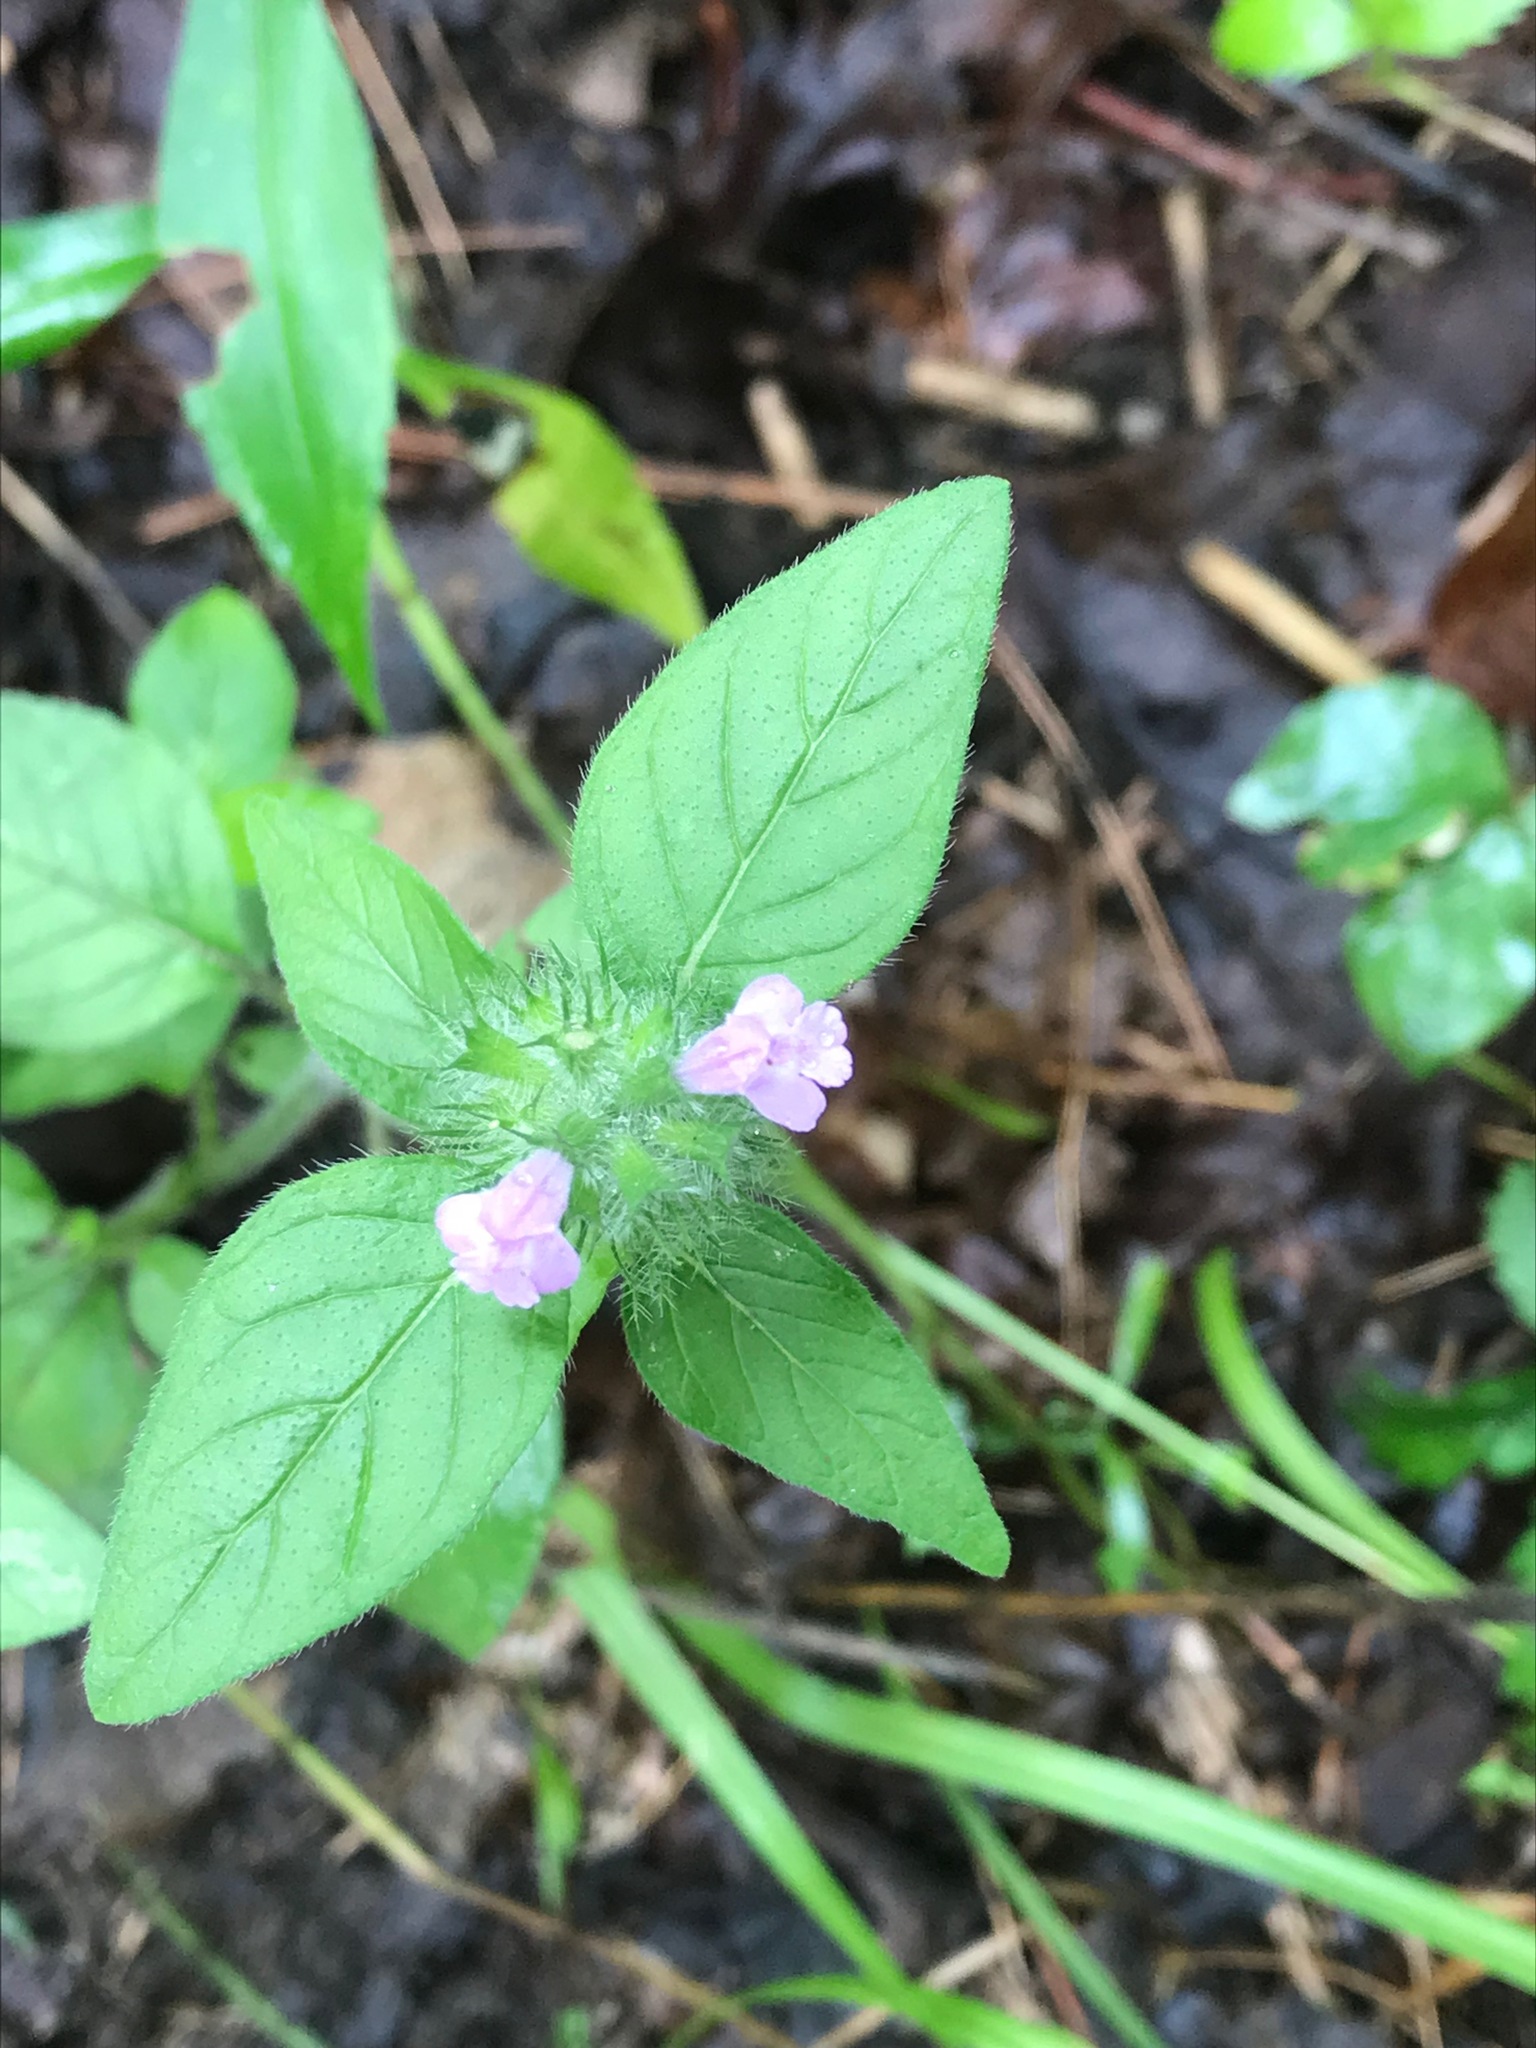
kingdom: Plantae
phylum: Tracheophyta
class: Magnoliopsida
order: Lamiales
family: Lamiaceae
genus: Clinopodium
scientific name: Clinopodium vulgare
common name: Wild basil
